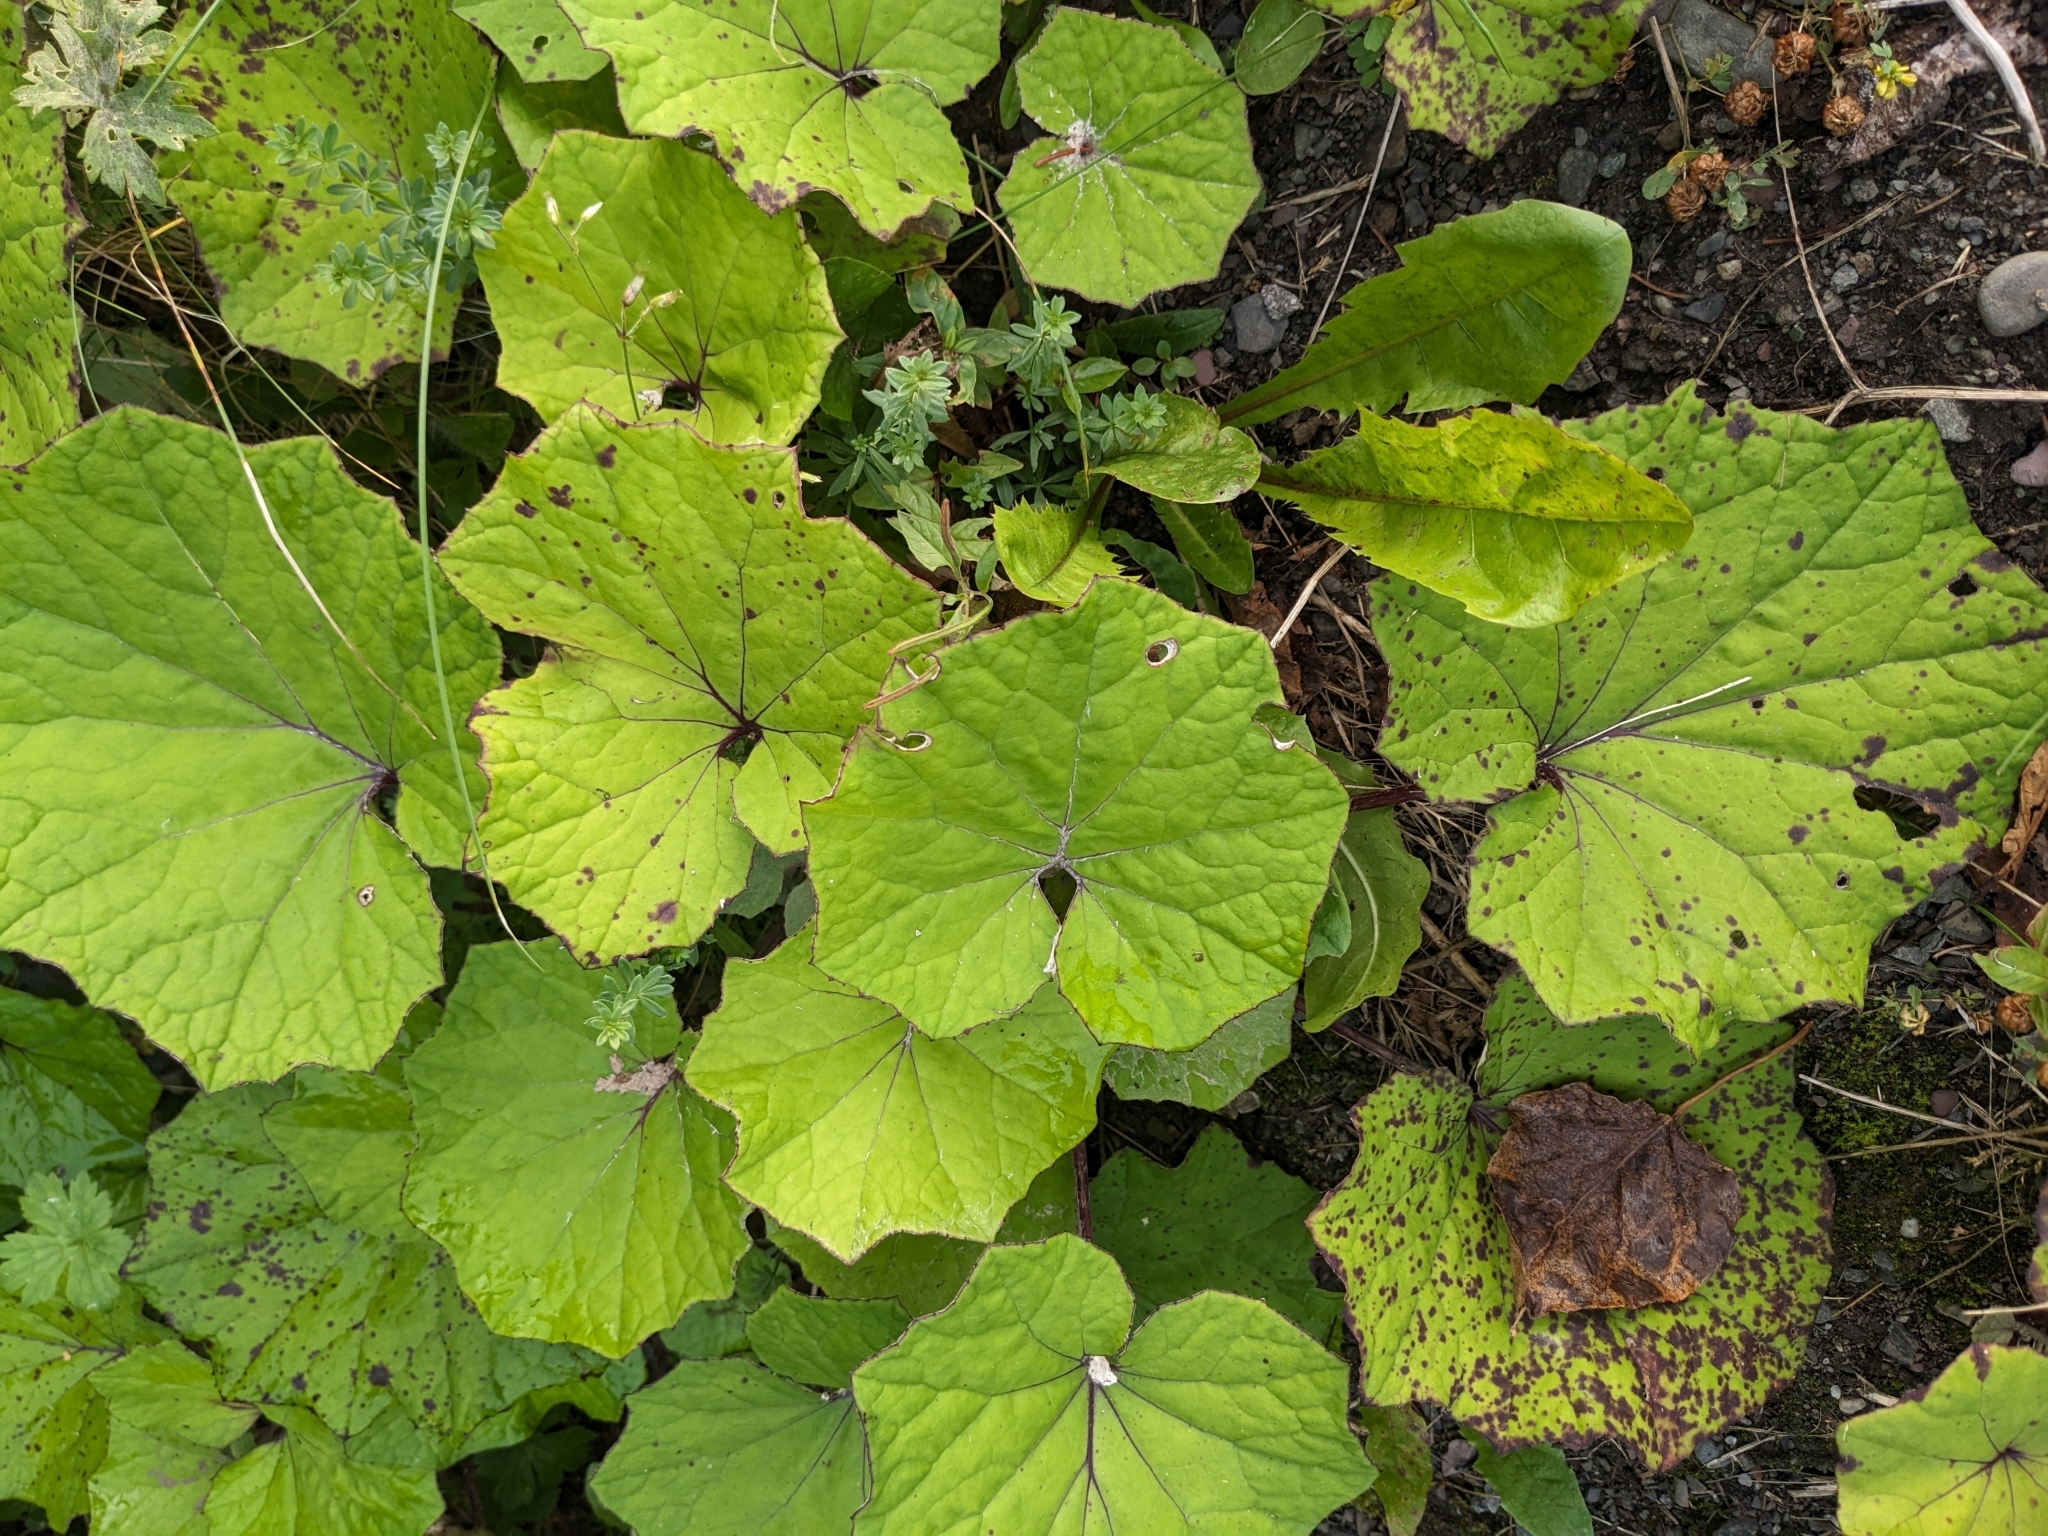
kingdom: Plantae
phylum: Tracheophyta
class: Magnoliopsida
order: Asterales
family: Asteraceae
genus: Tussilago
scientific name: Tussilago farfara
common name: Coltsfoot
